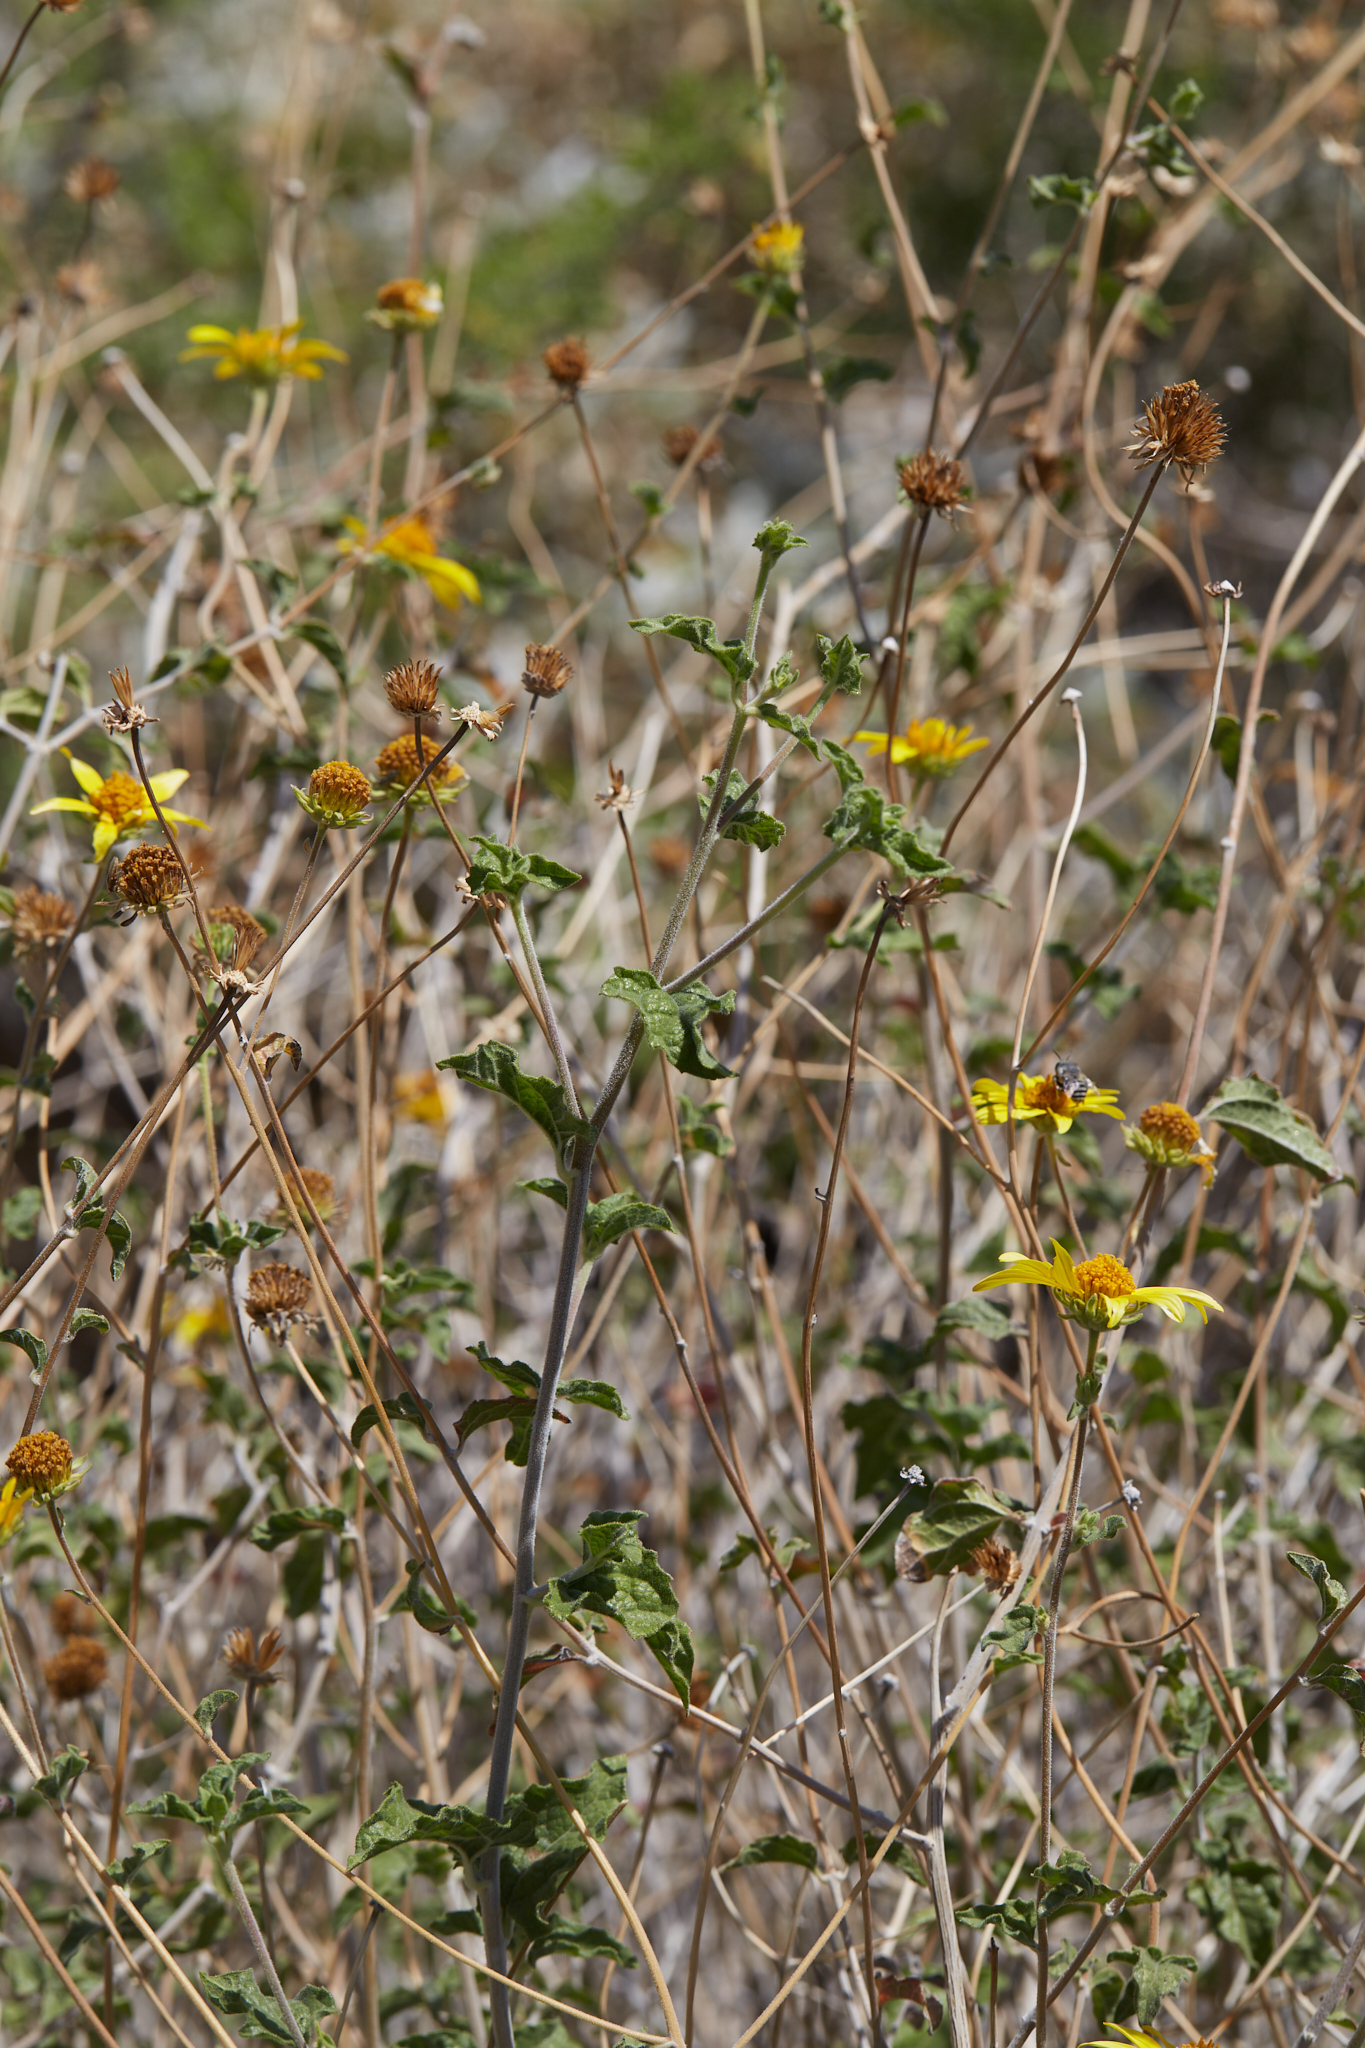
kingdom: Plantae
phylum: Tracheophyta
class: Magnoliopsida
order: Asterales
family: Asteraceae
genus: Bahiopsis
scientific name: Bahiopsis parishii
